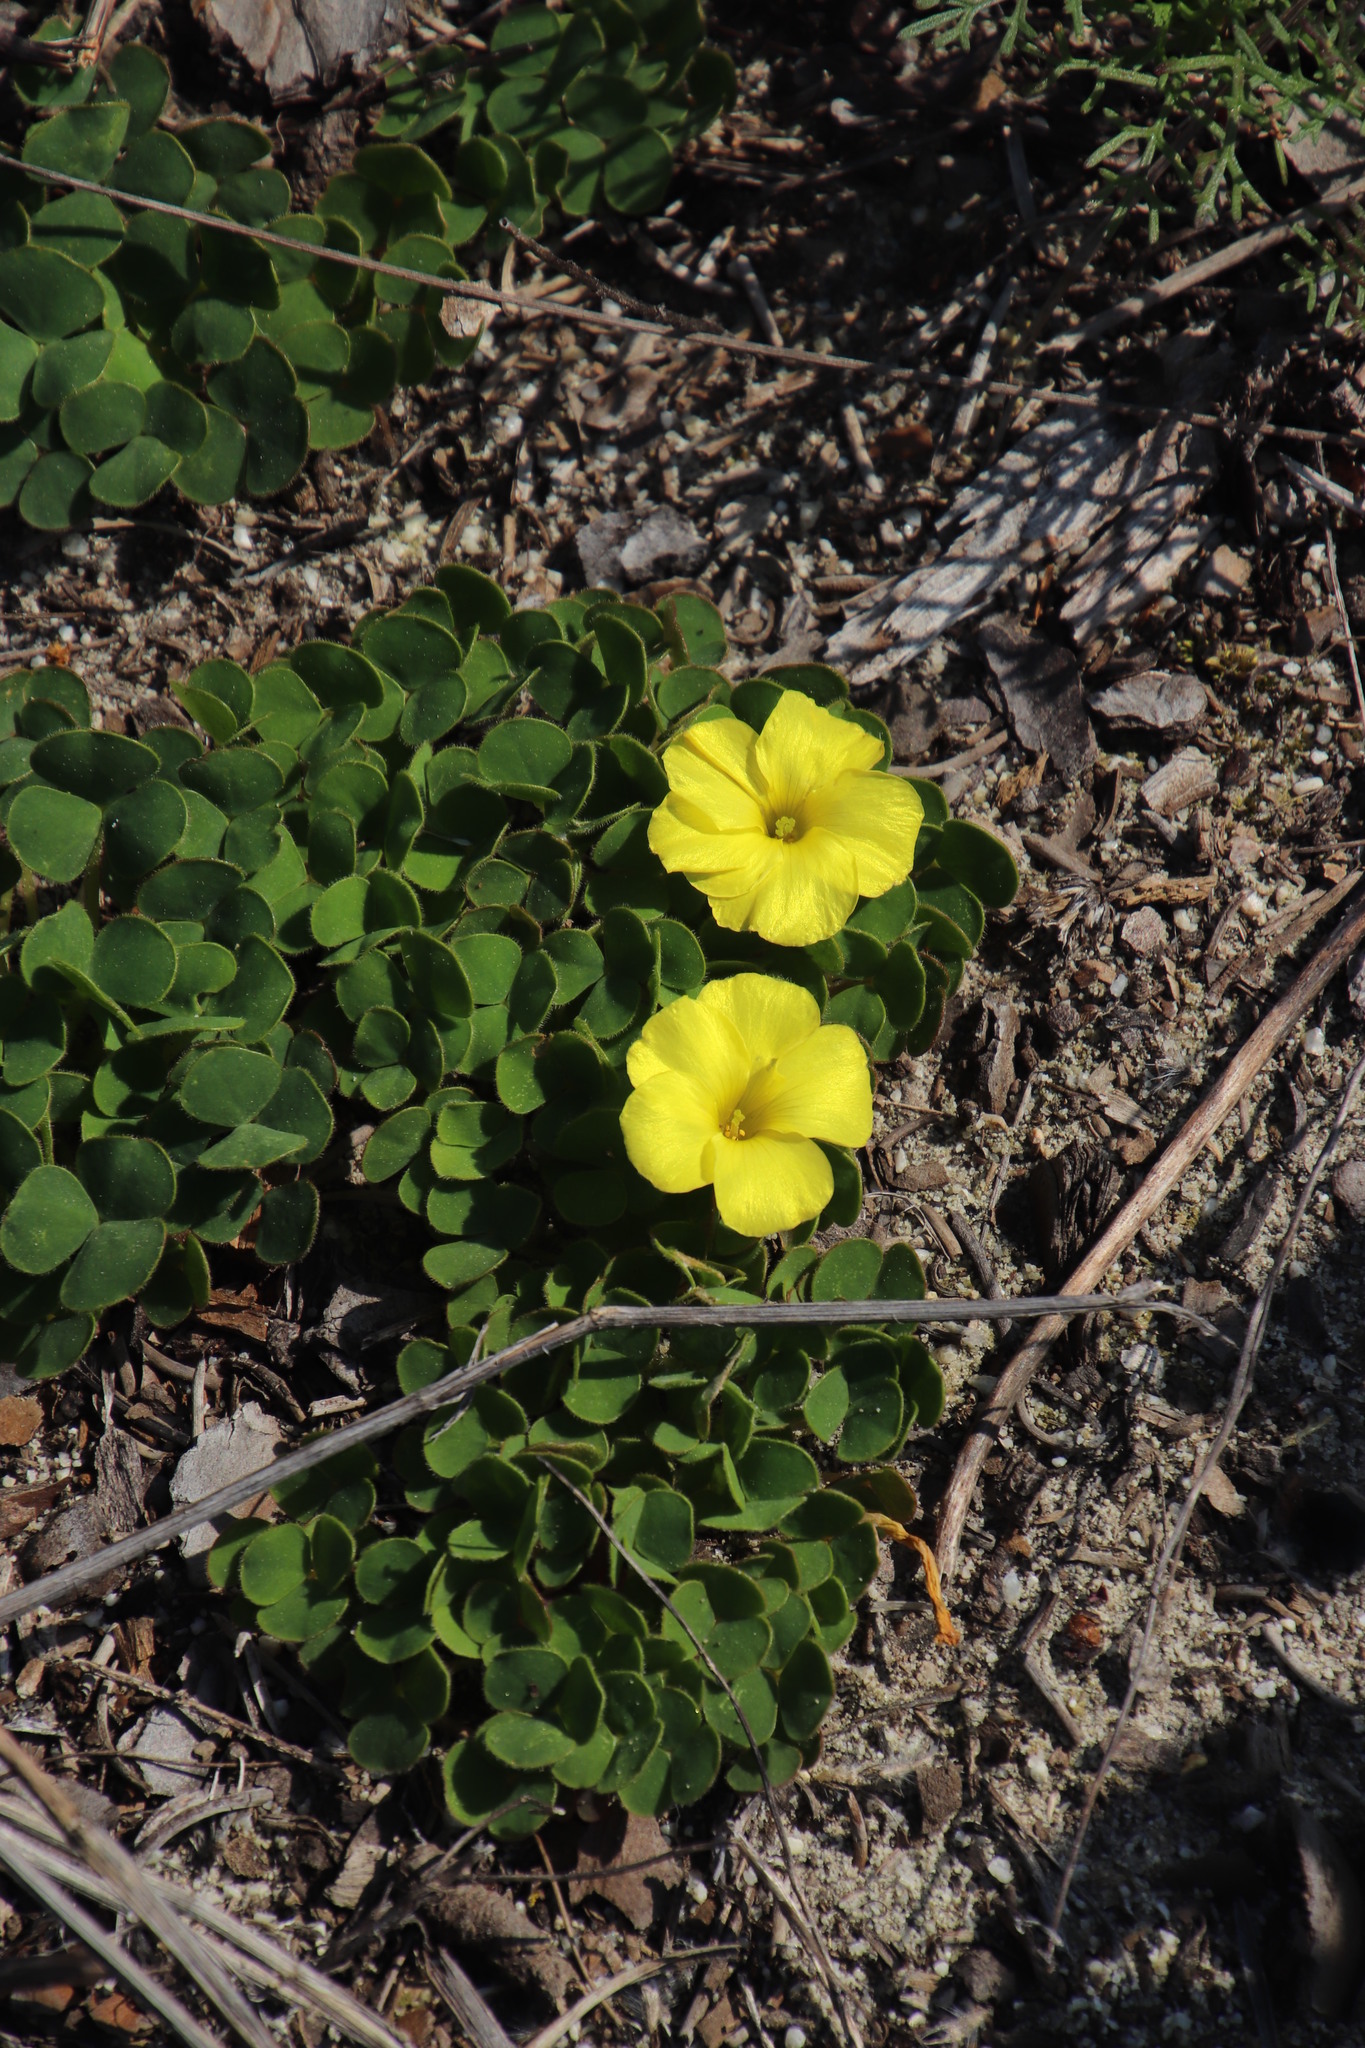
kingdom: Plantae
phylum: Tracheophyta
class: Magnoliopsida
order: Oxalidales
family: Oxalidaceae
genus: Oxalis
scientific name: Oxalis luteola
